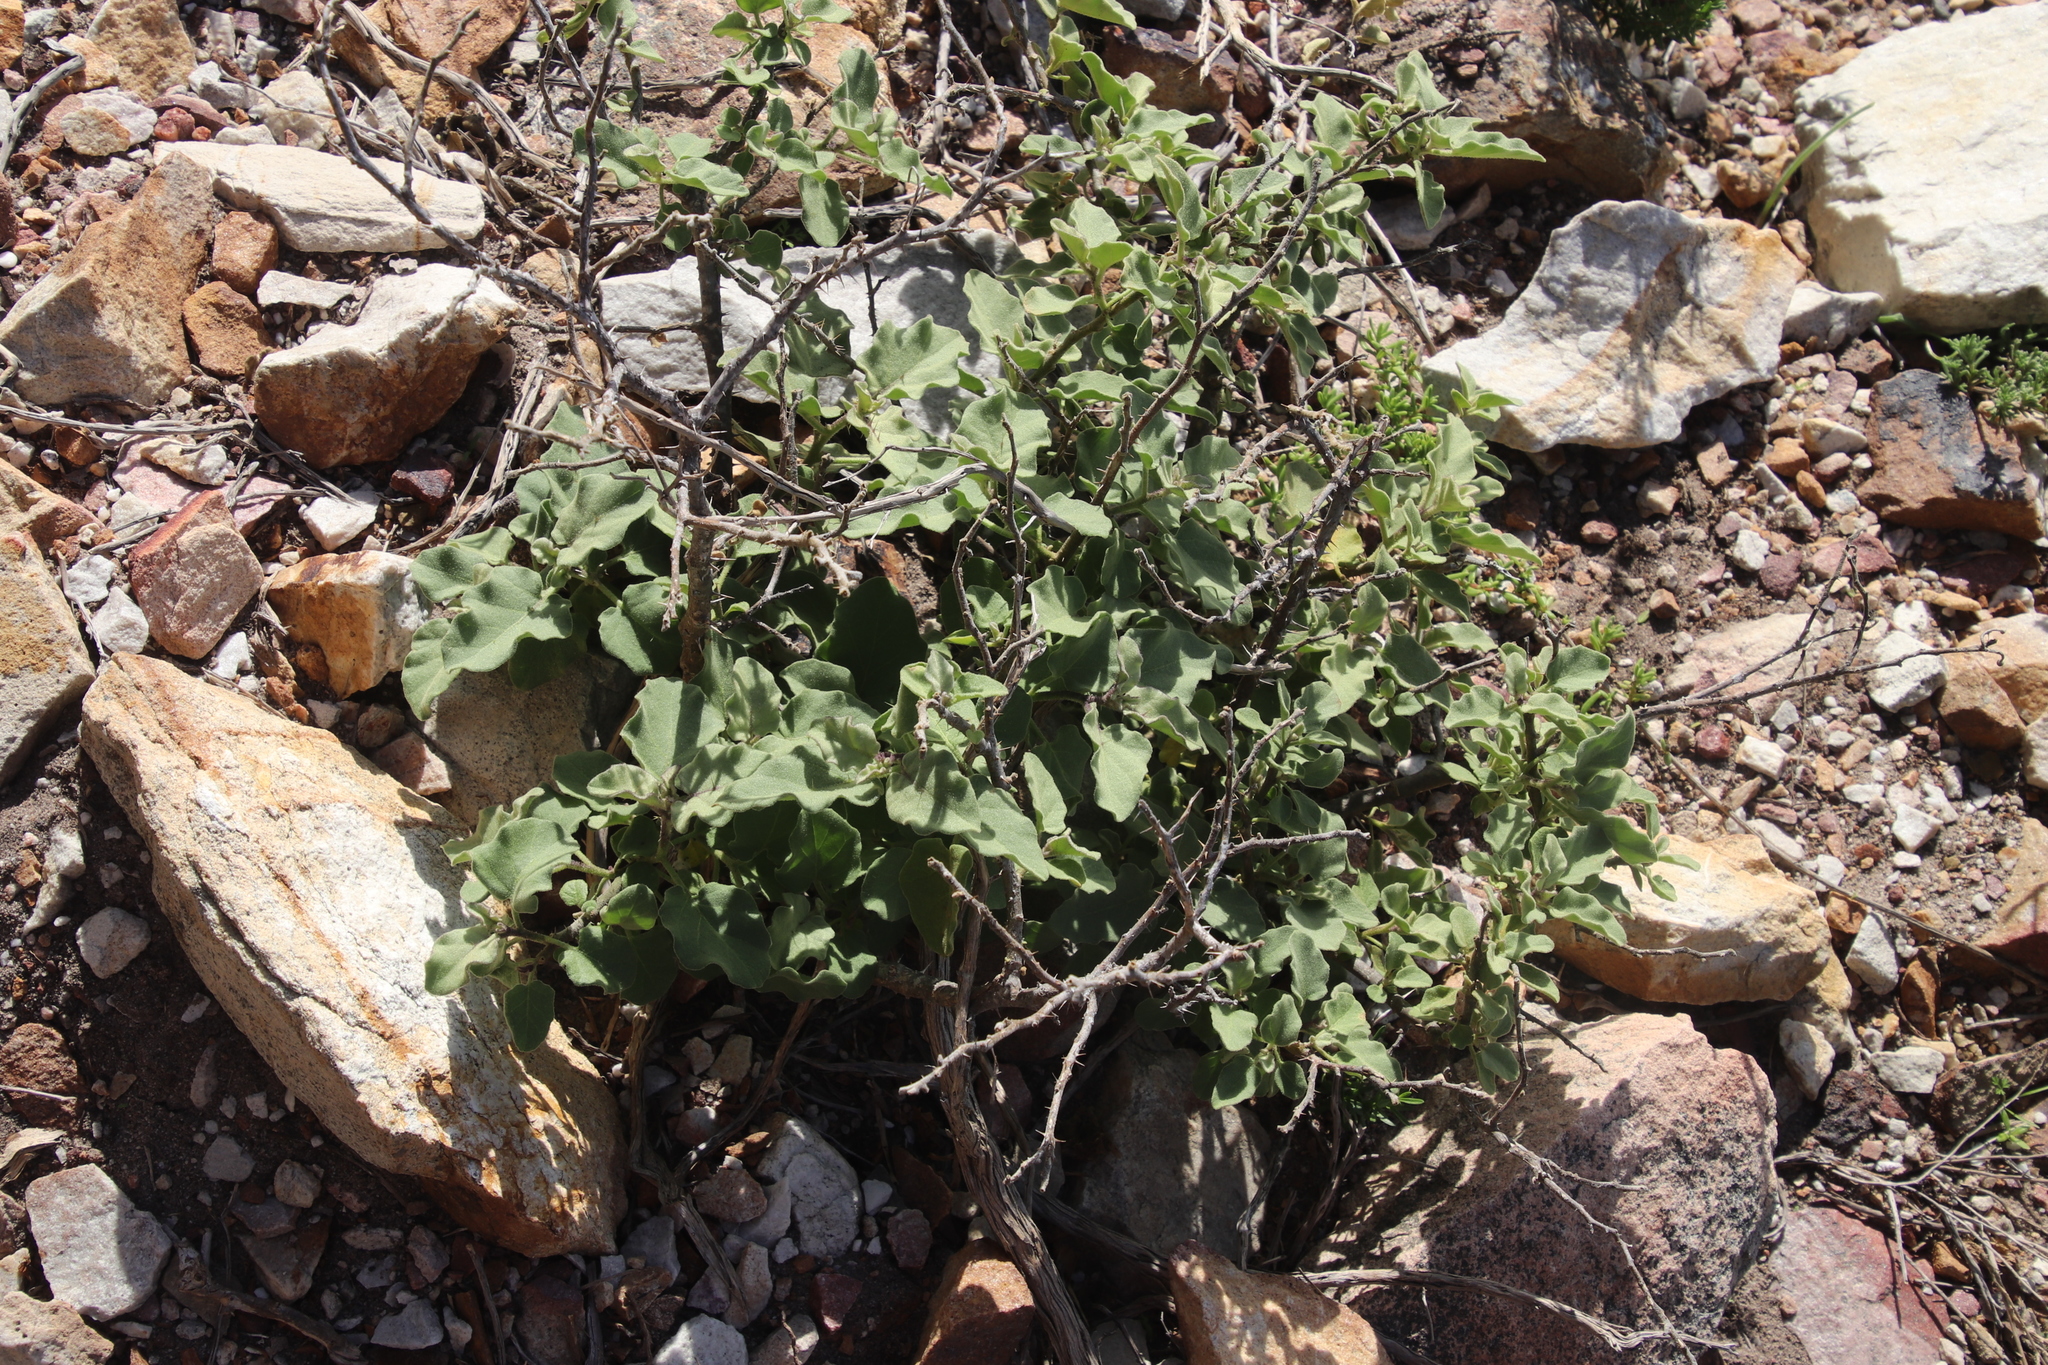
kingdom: Plantae
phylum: Tracheophyta
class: Magnoliopsida
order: Solanales
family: Solanaceae
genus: Solanum
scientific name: Solanum tomentosum
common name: Wild aubergine
